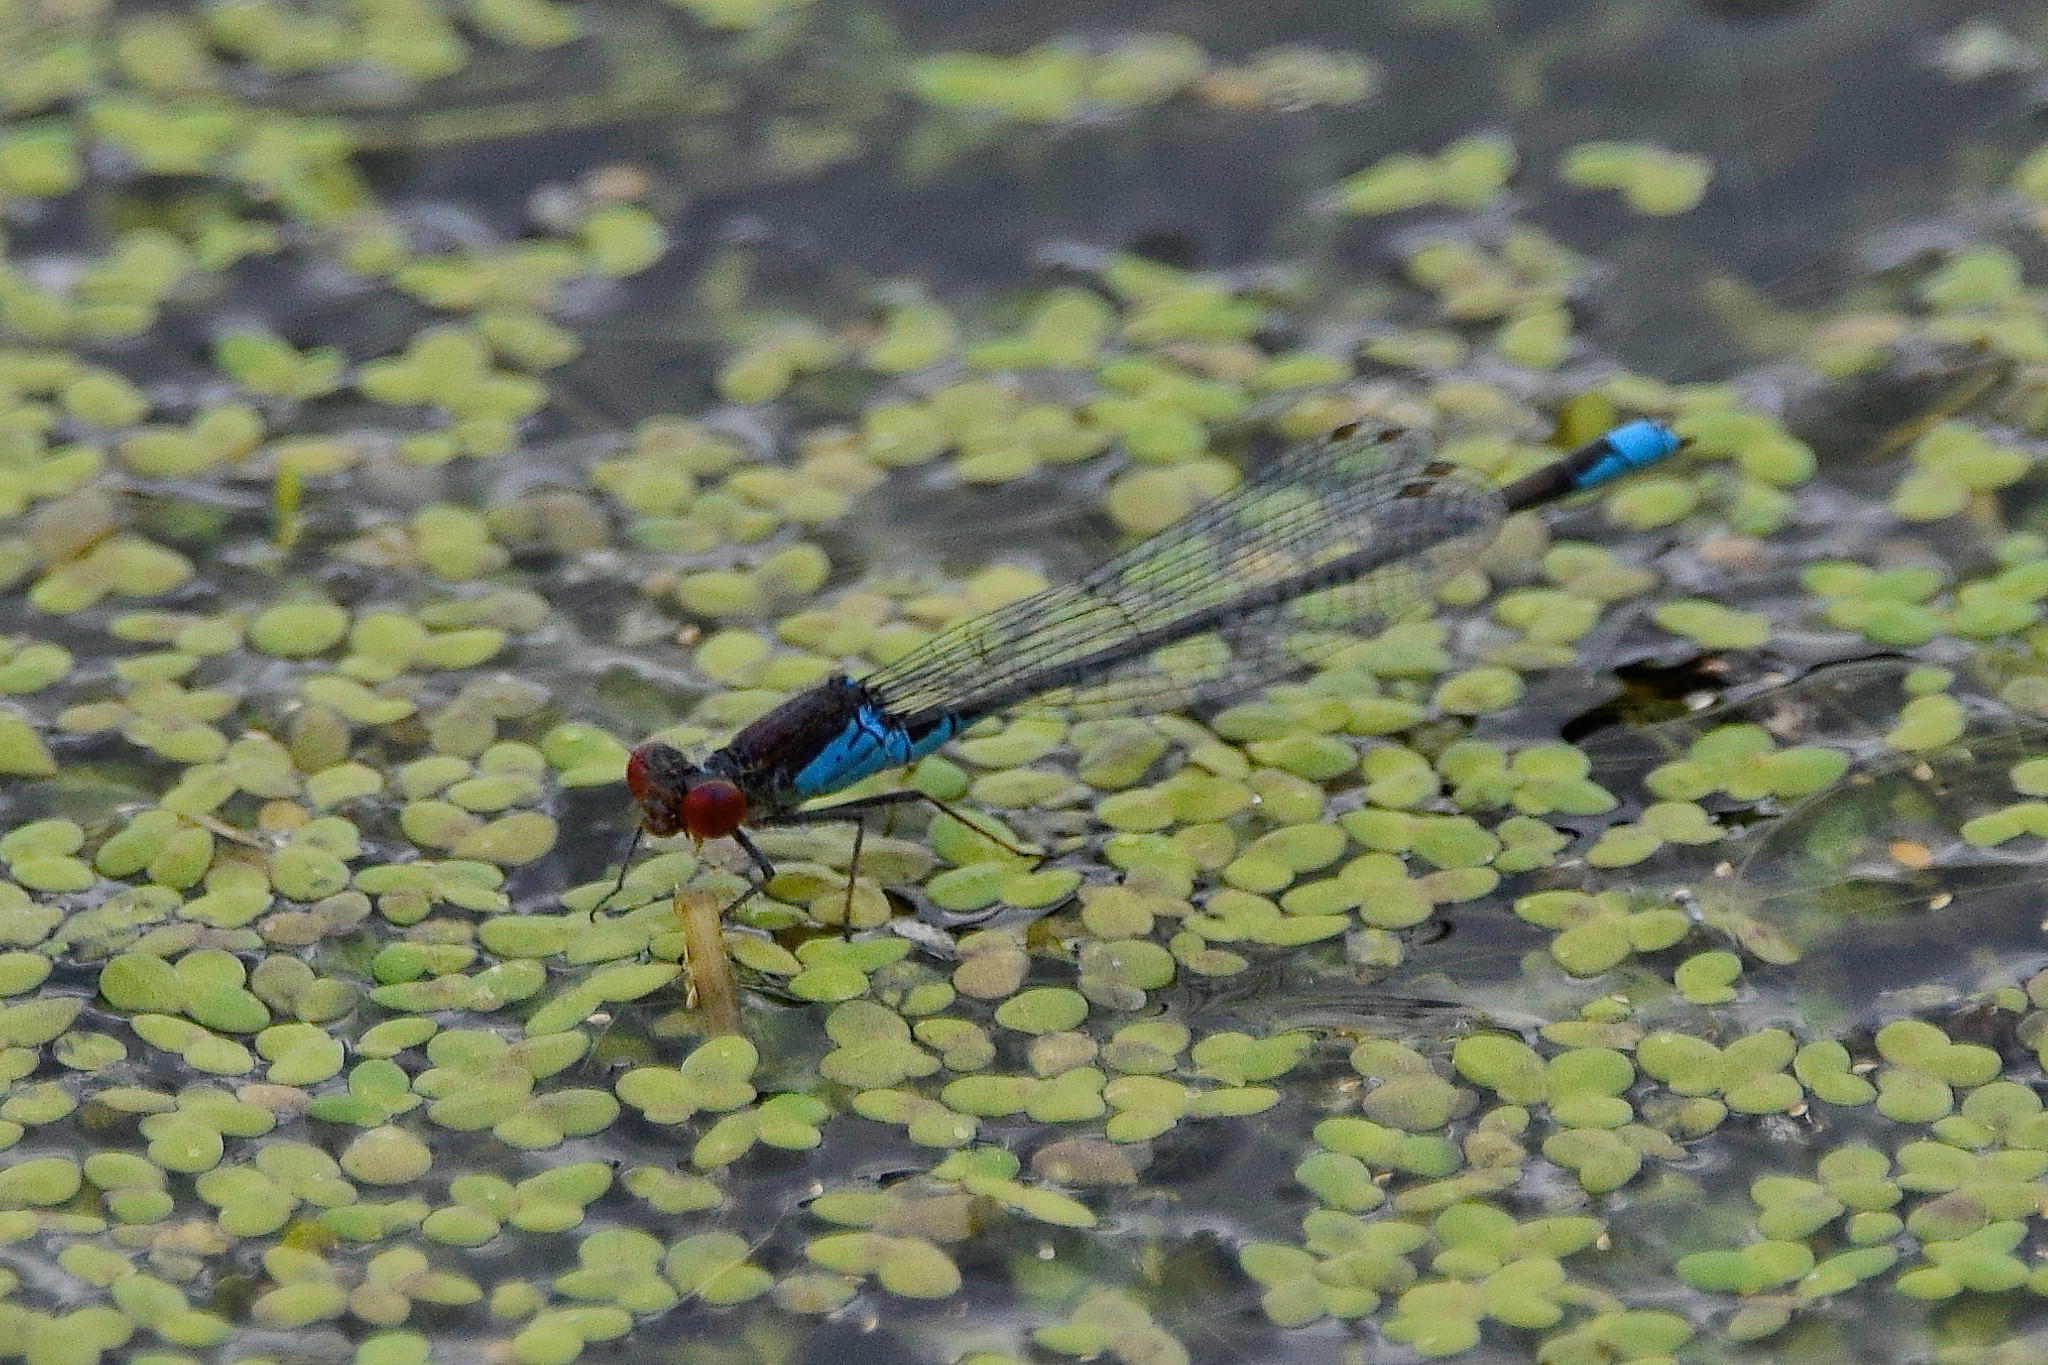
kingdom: Animalia
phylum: Arthropoda
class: Insecta
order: Odonata
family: Coenagrionidae
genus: Erythromma
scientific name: Erythromma viridulum
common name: Small red-eyed damselfly
